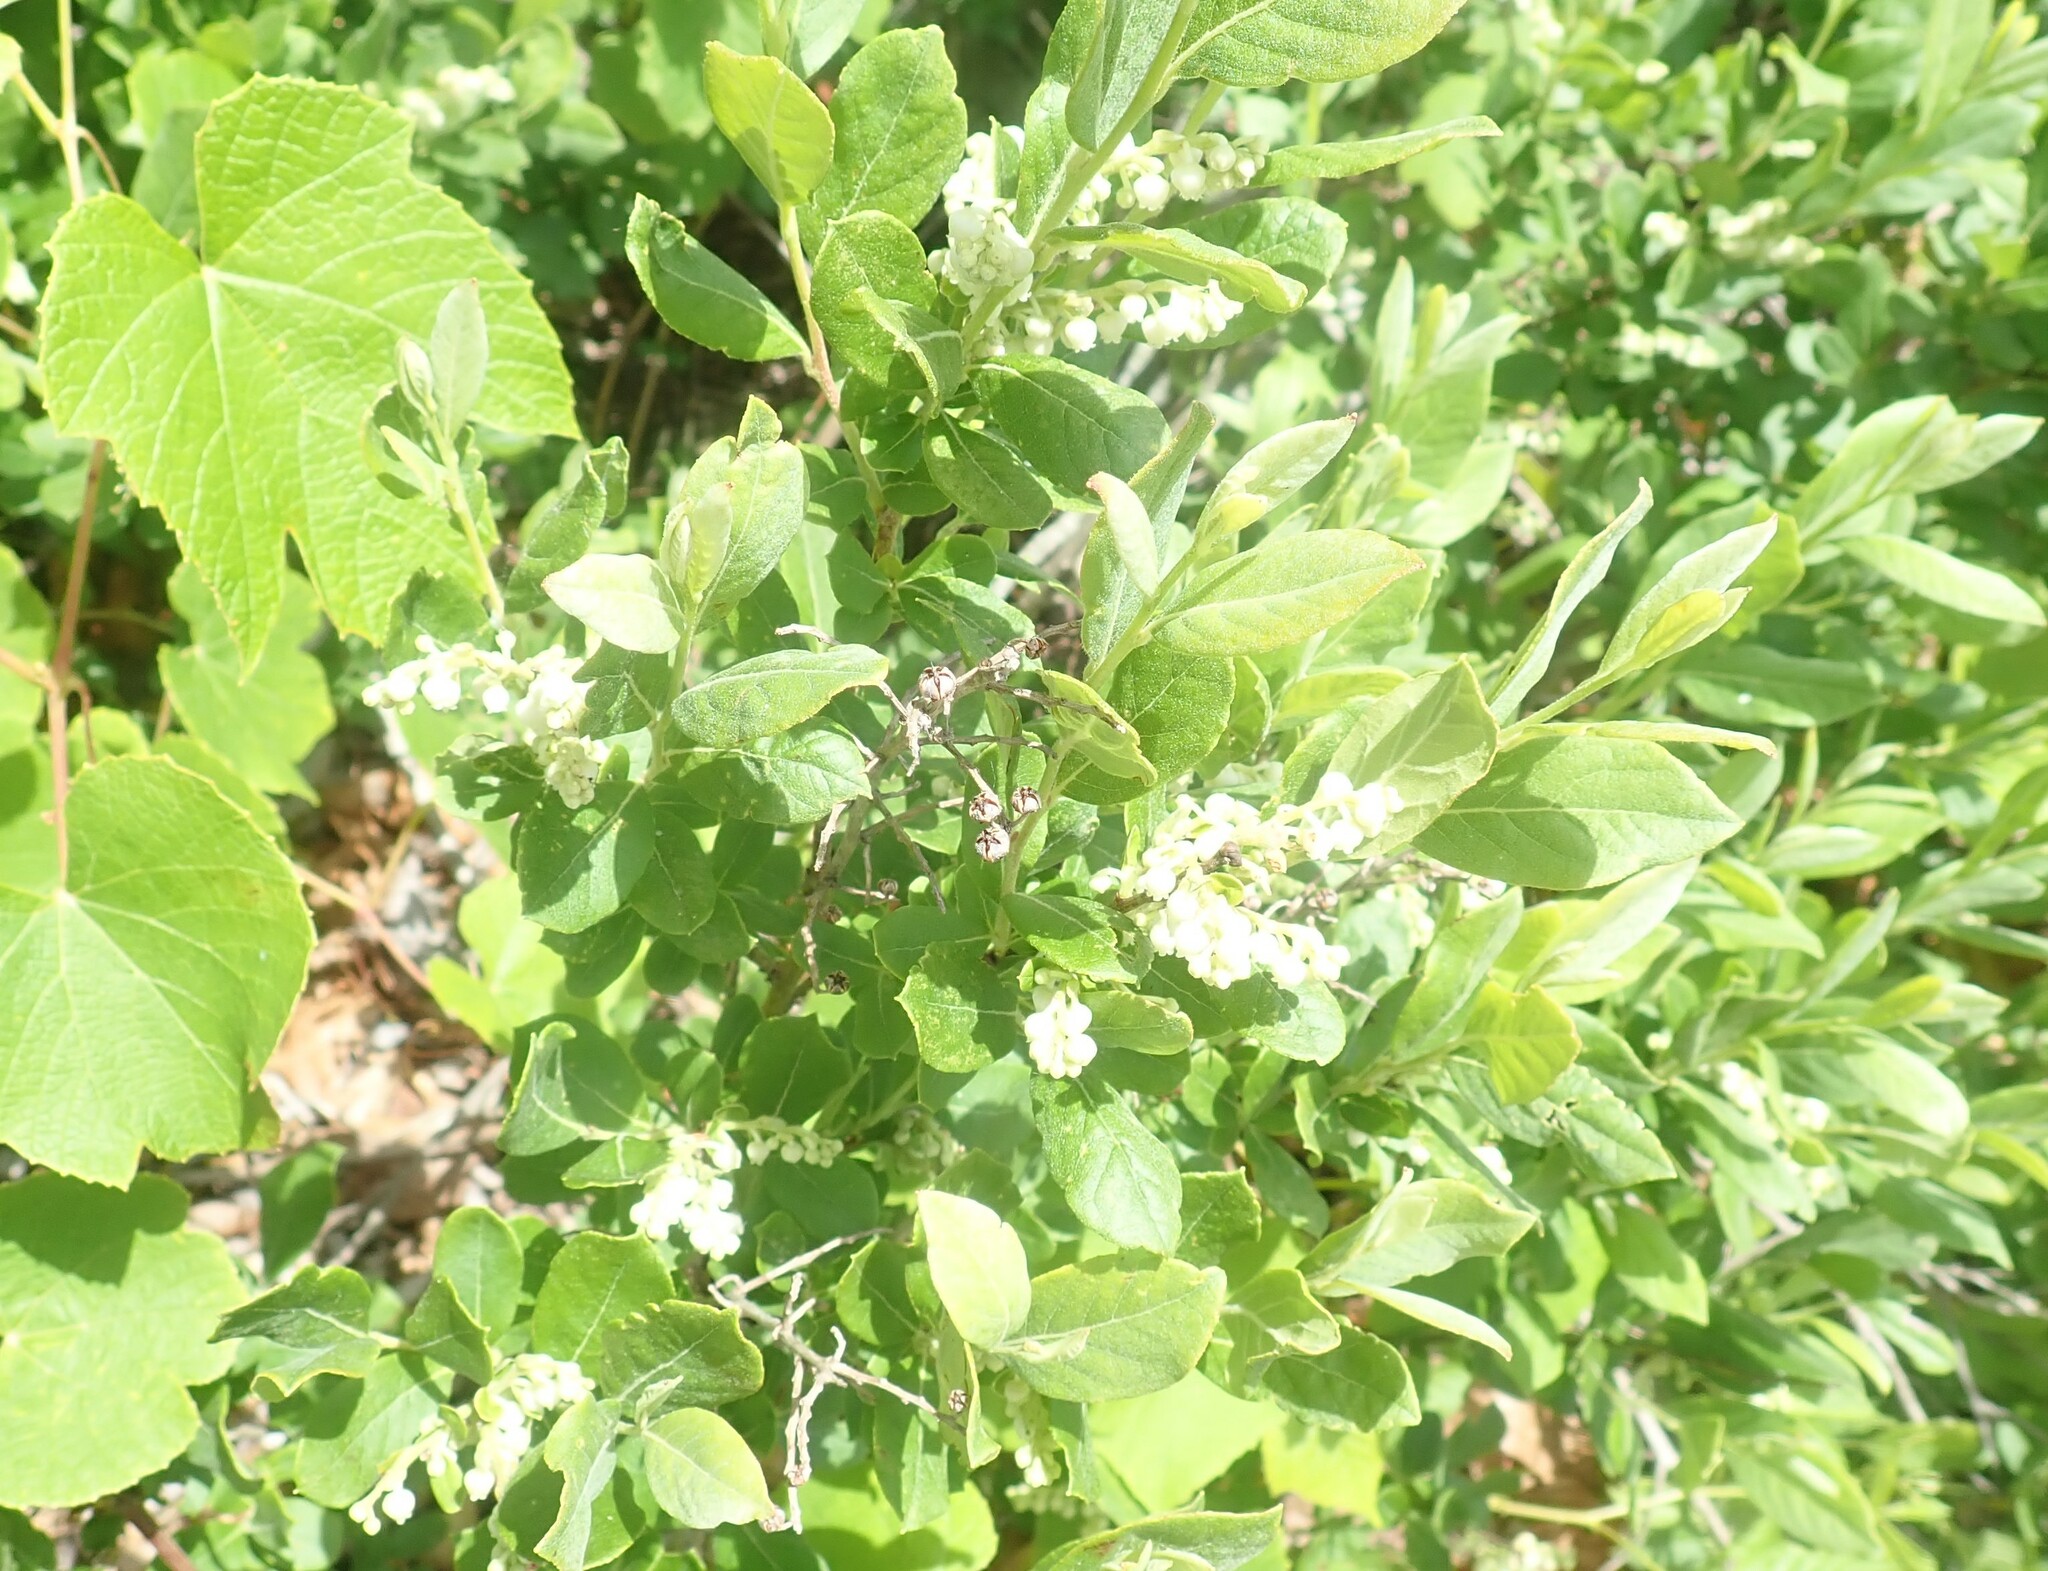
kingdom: Plantae
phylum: Tracheophyta
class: Magnoliopsida
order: Ericales
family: Ericaceae
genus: Lyonia
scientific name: Lyonia ligustrina
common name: Maleberry
